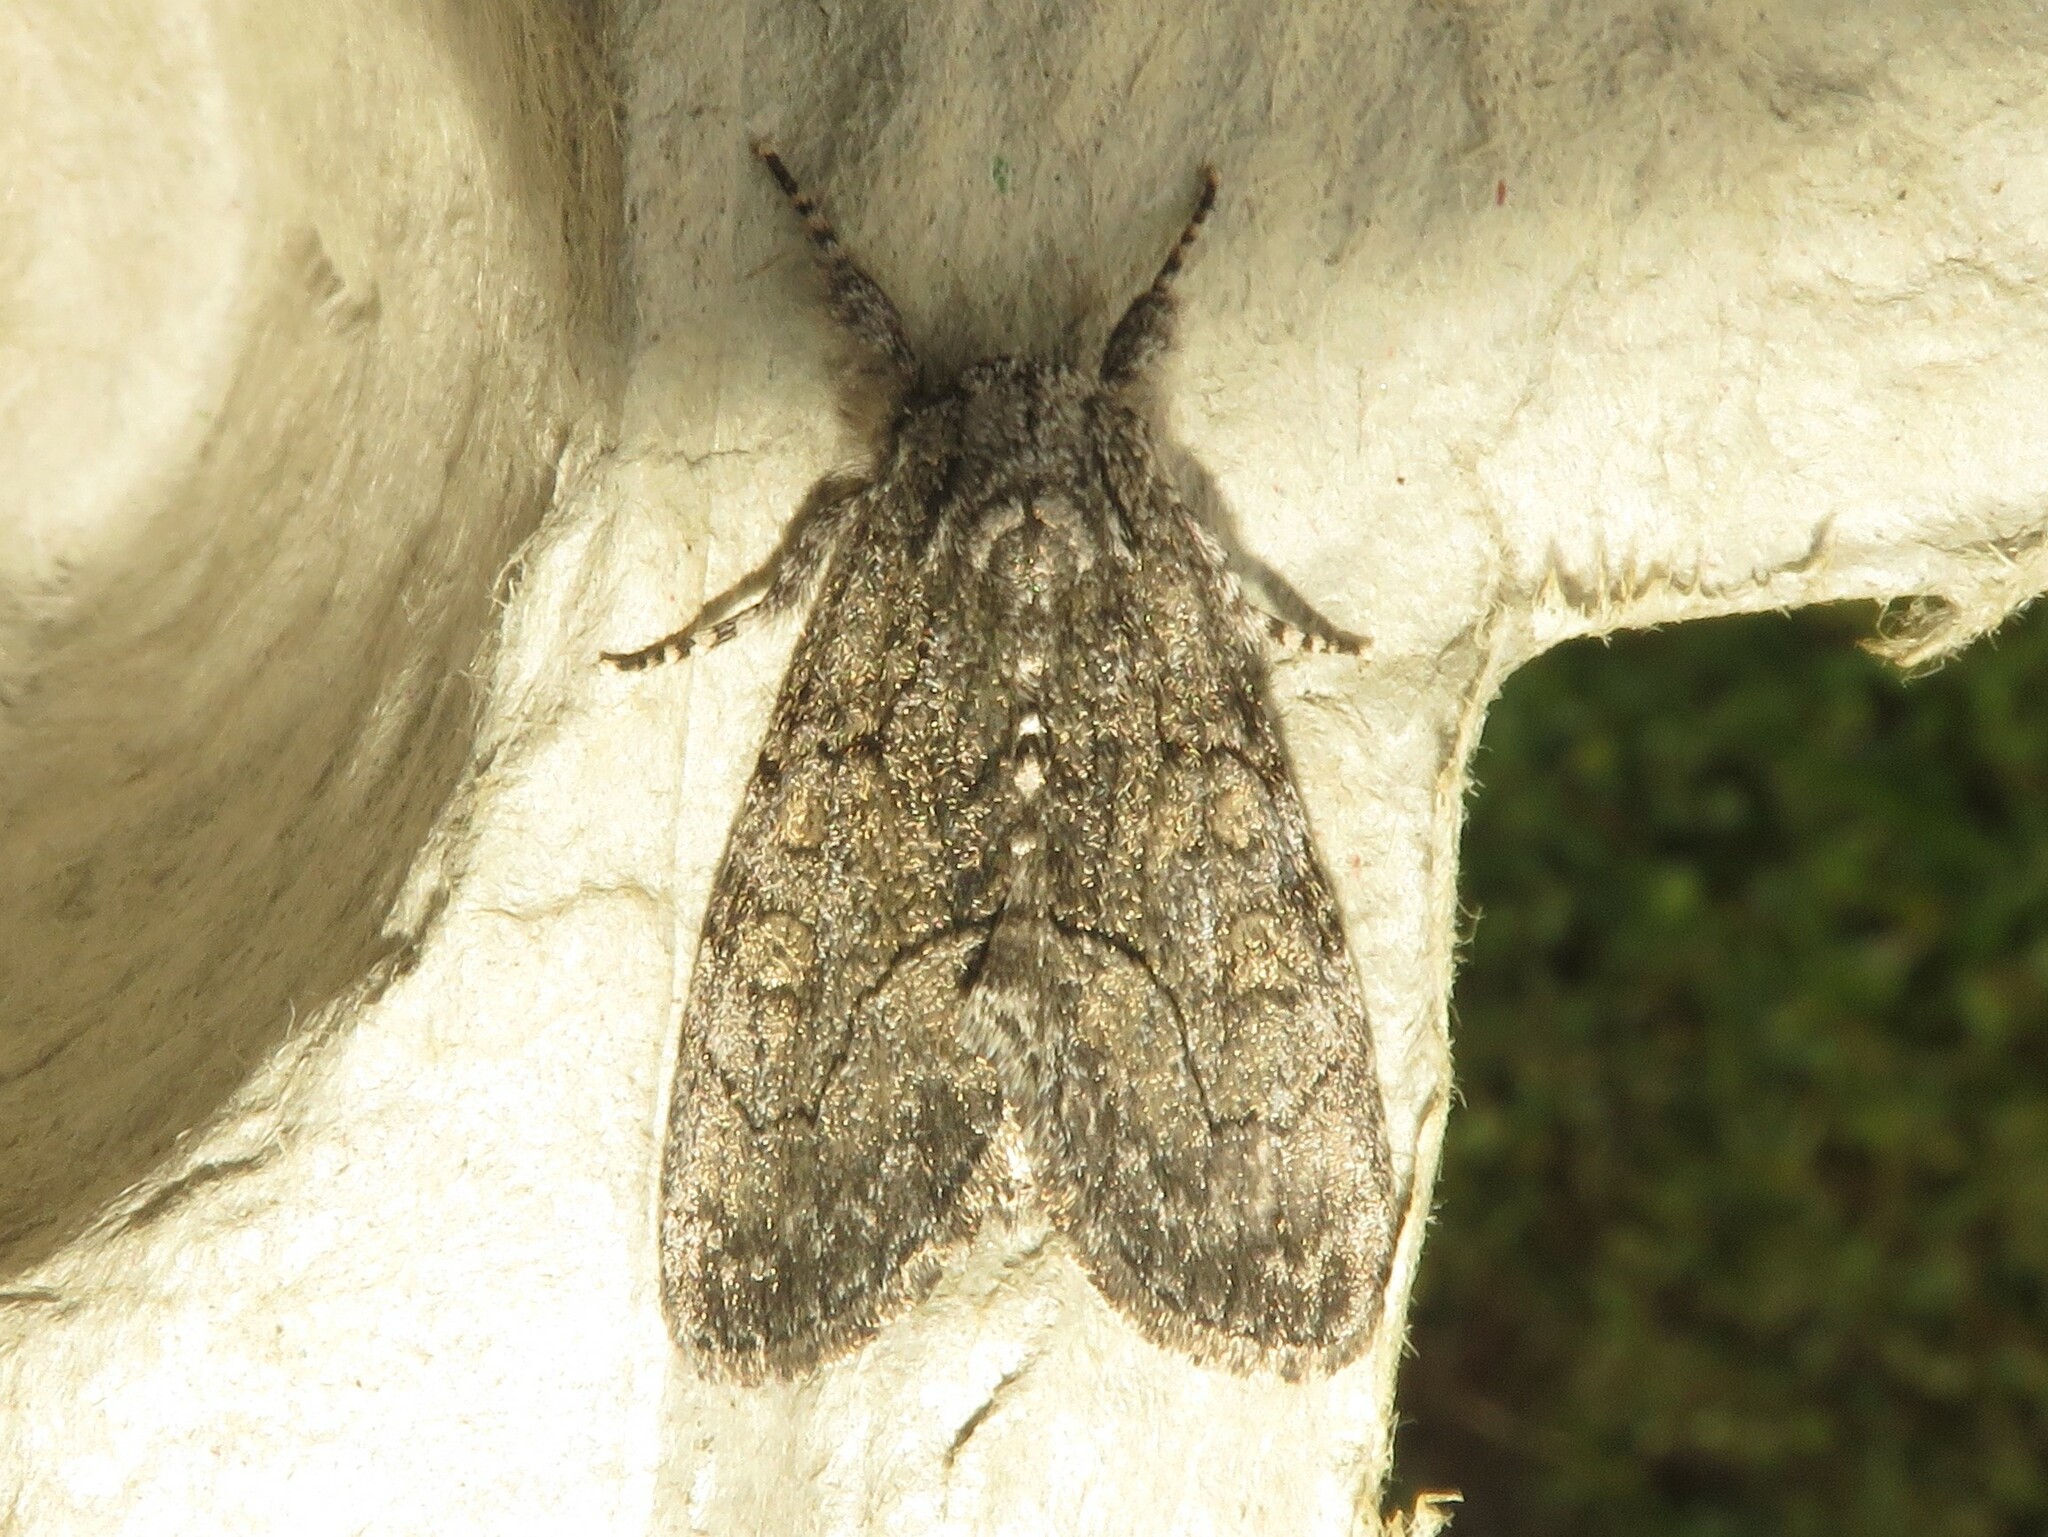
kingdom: Animalia
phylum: Arthropoda
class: Insecta
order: Lepidoptera
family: Noctuidae
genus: Raphia
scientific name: Raphia frater
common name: Brother
